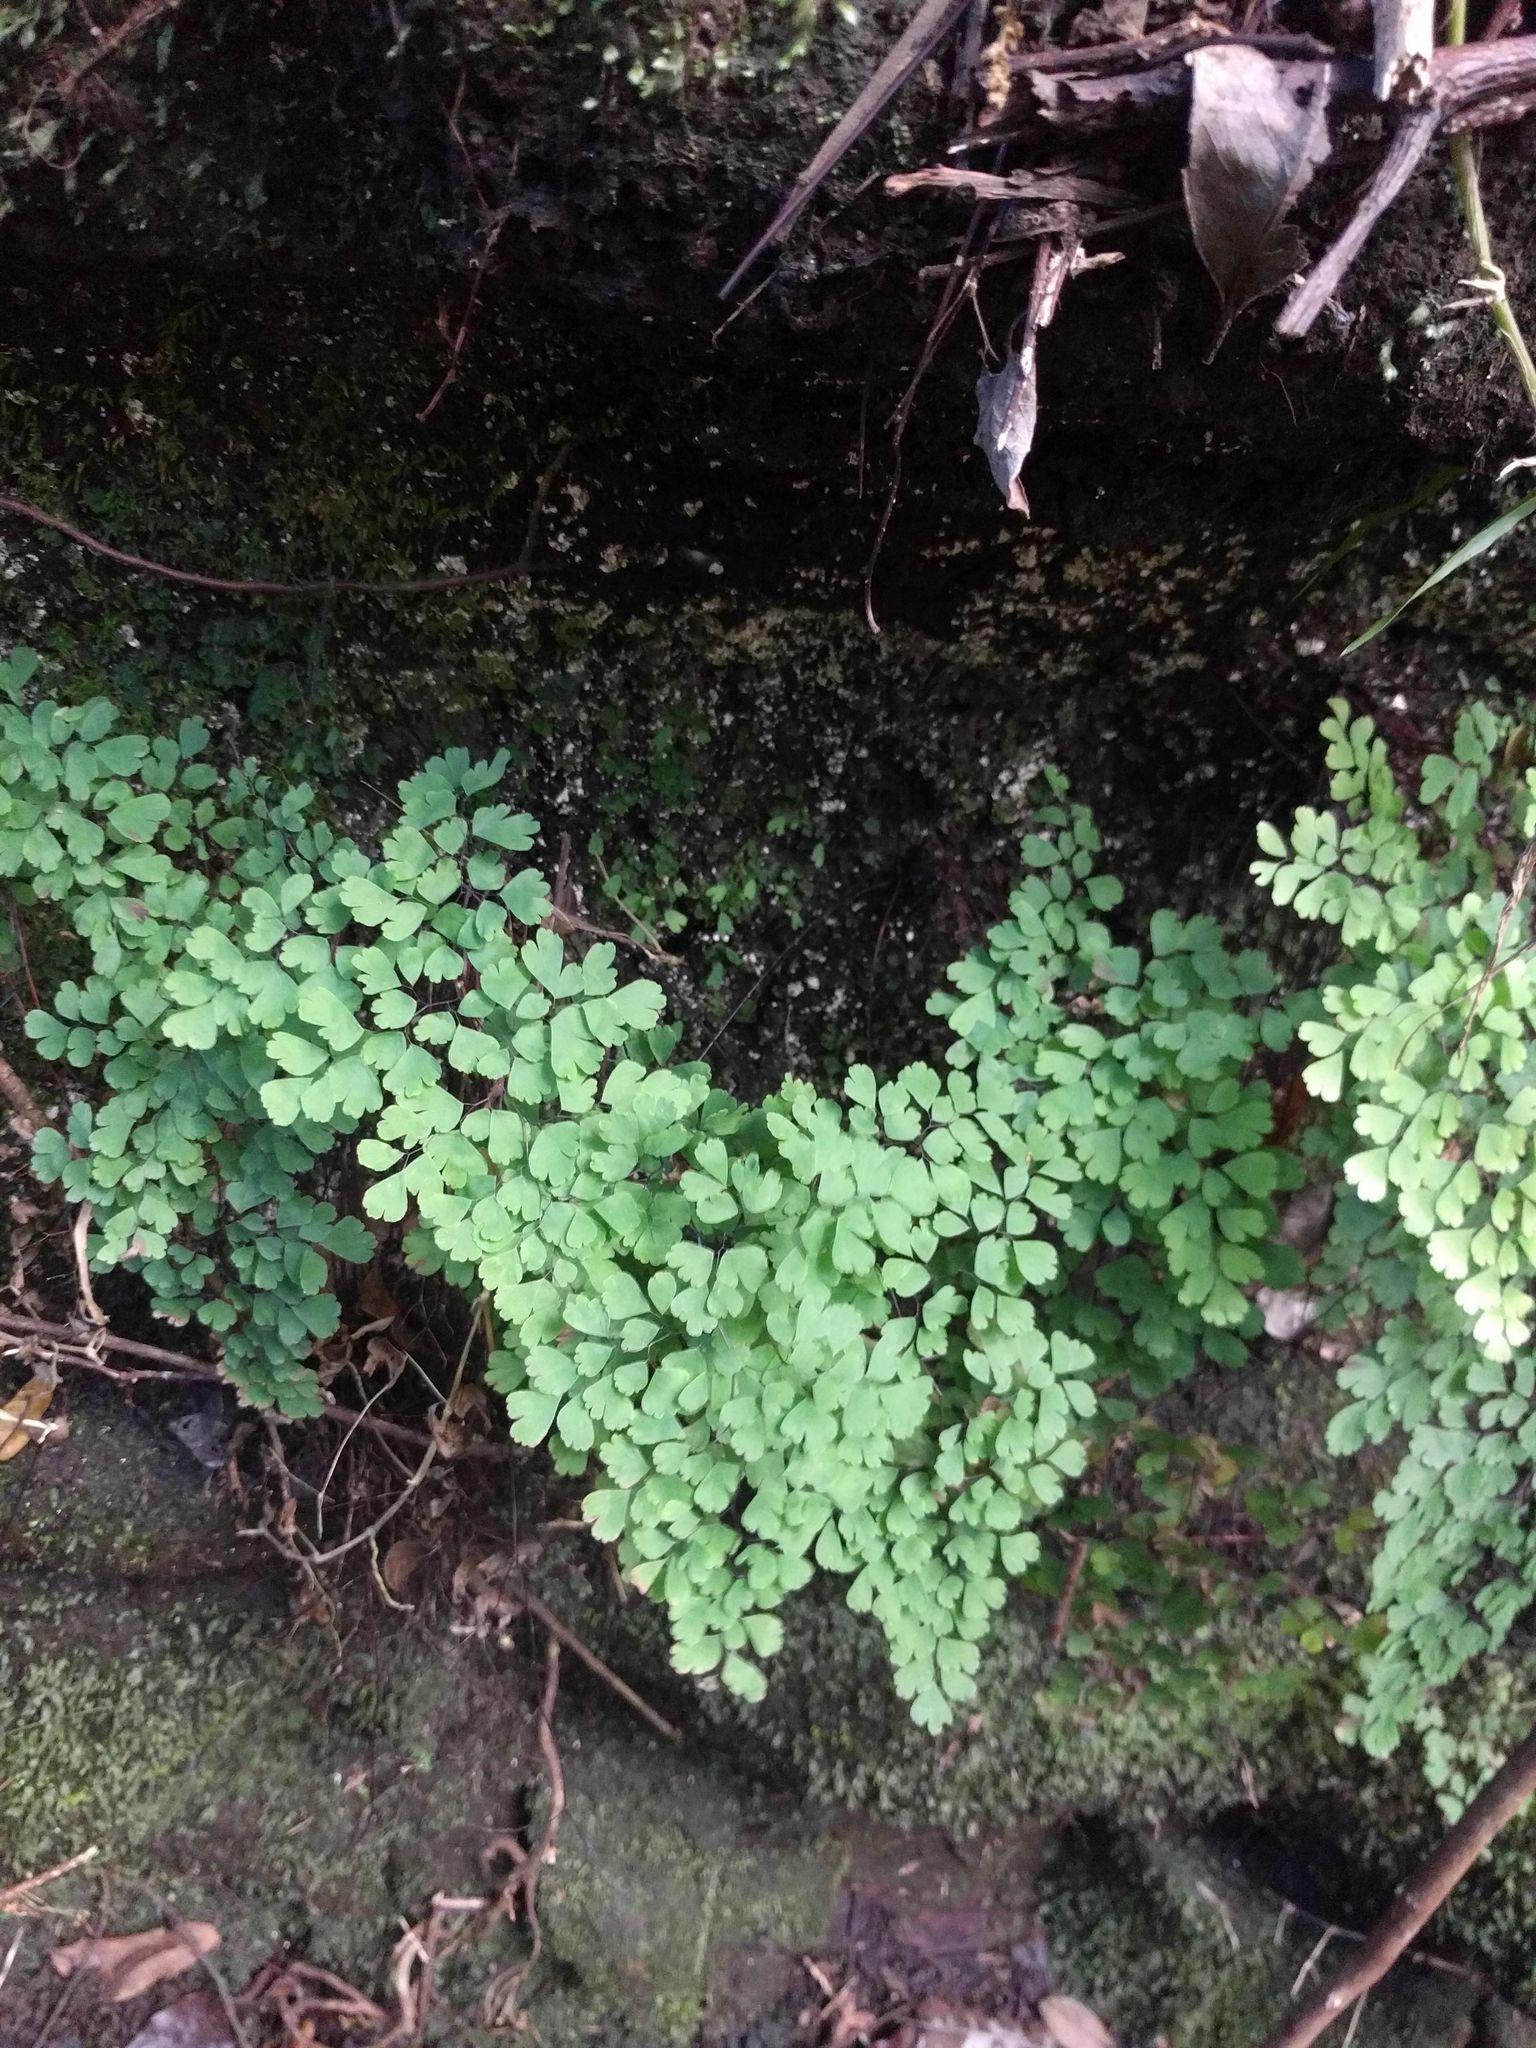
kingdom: Plantae
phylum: Tracheophyta
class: Polypodiopsida
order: Polypodiales
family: Pteridaceae
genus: Adiantum
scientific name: Adiantum raddianum
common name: Delta maidenhair fern
